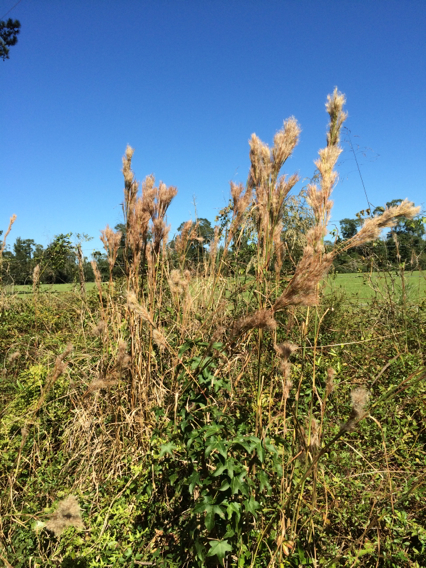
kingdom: Plantae
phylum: Tracheophyta
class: Liliopsida
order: Poales
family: Poaceae
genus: Andropogon
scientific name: Andropogon tenuispatheus
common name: Bushy bluestem
